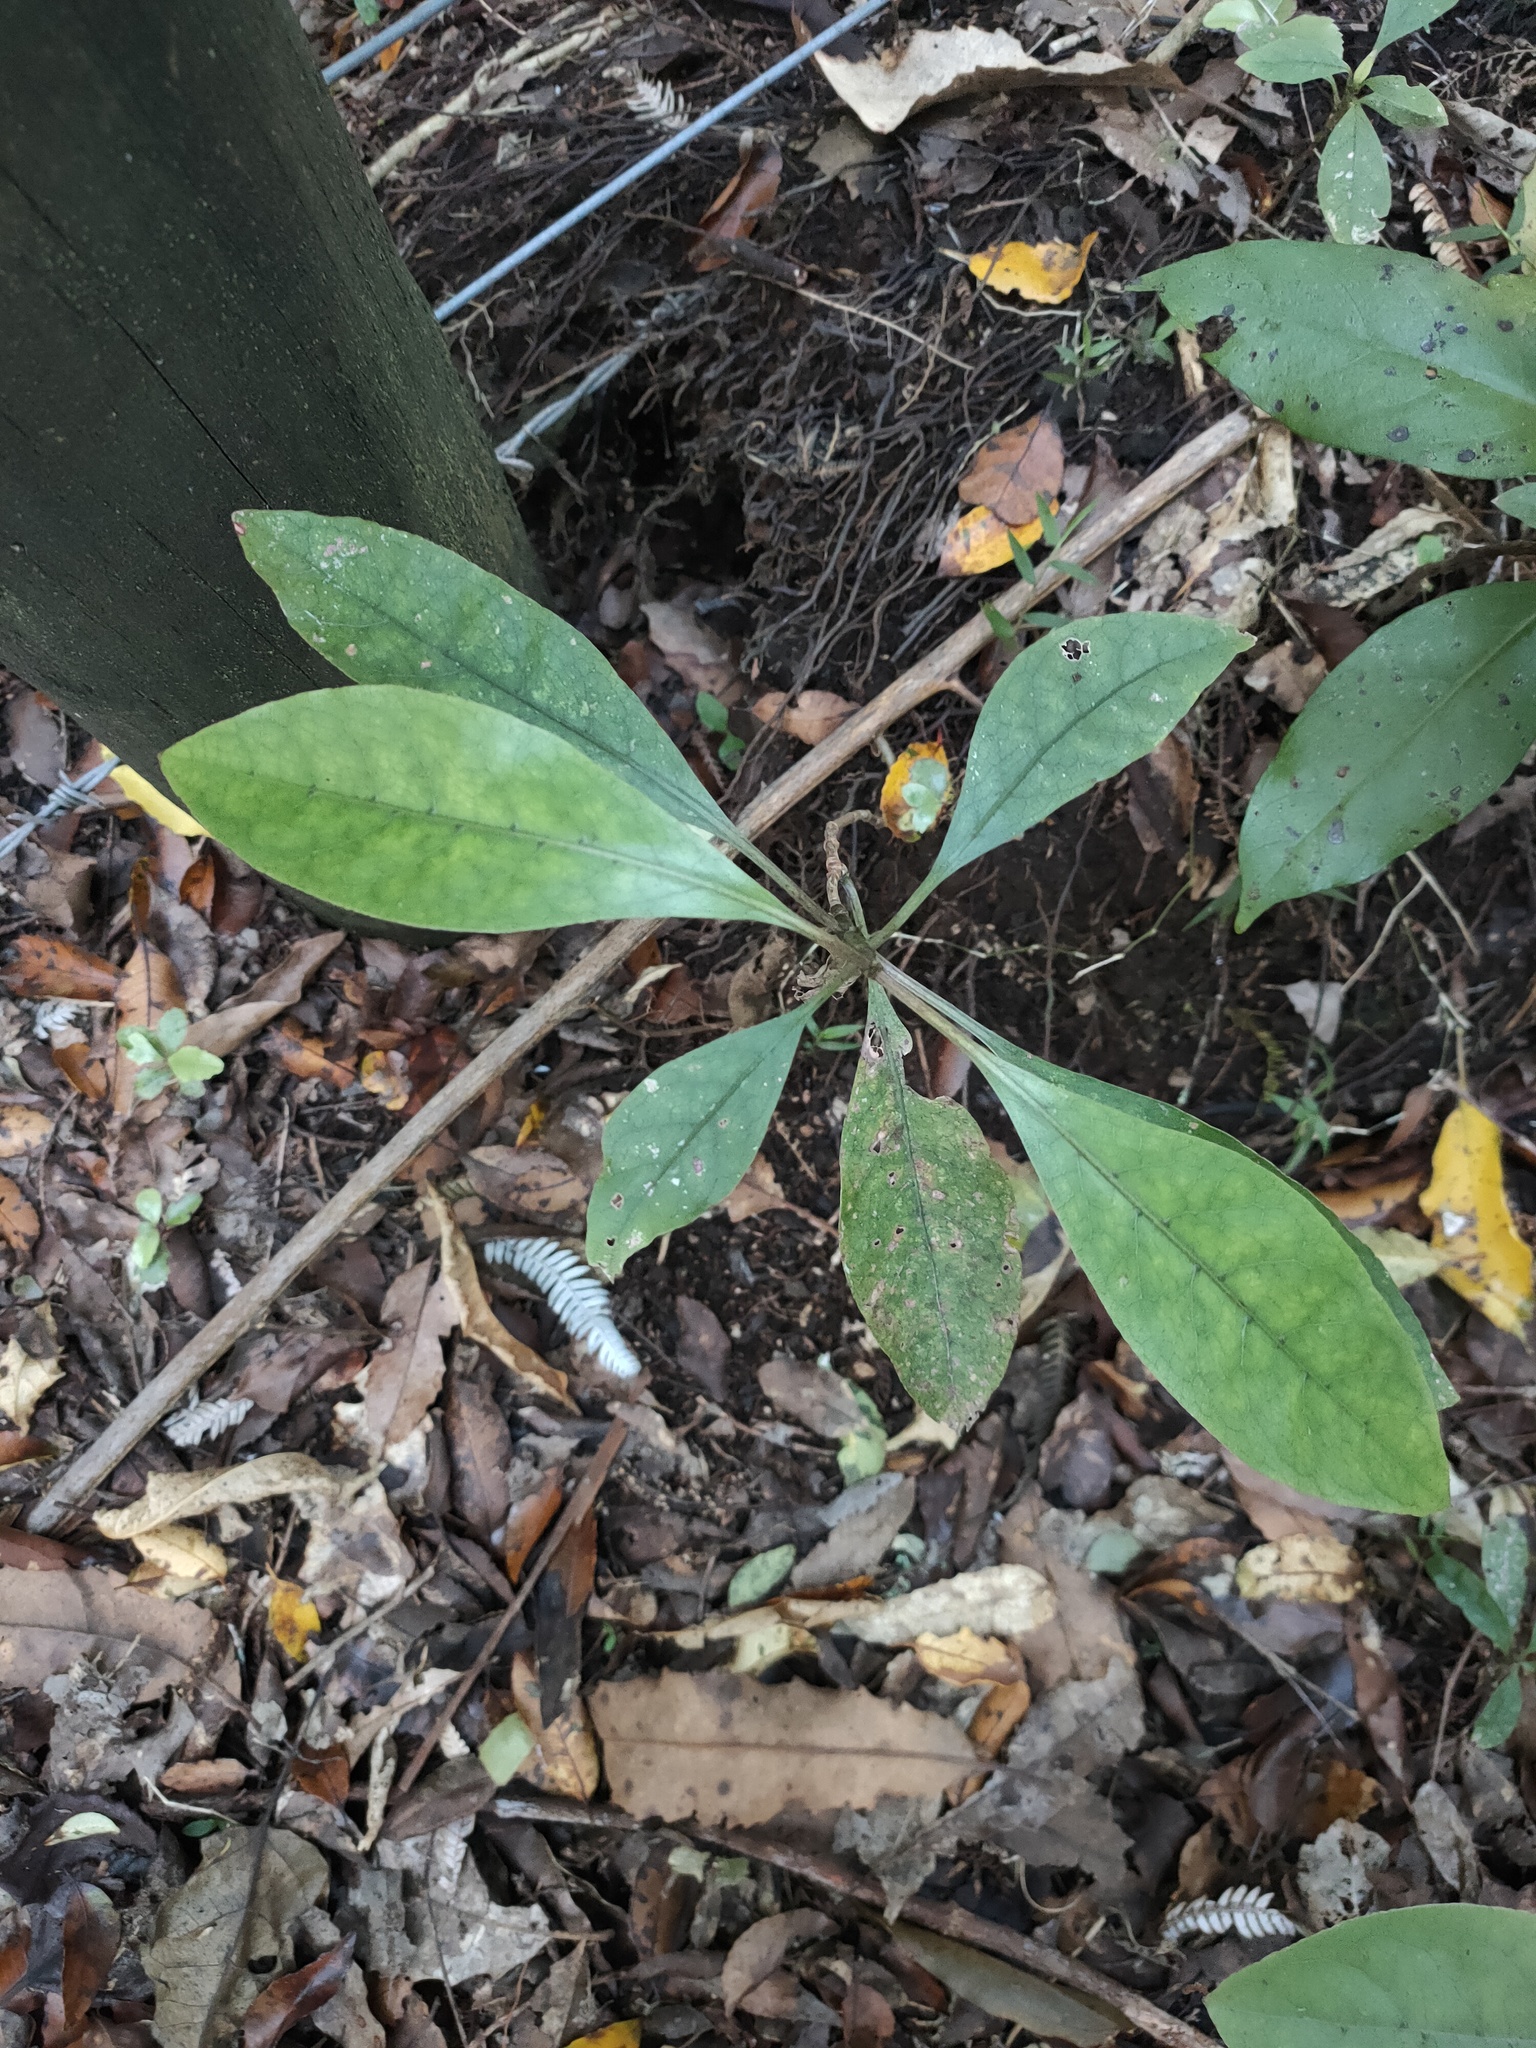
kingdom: Plantae
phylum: Tracheophyta
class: Magnoliopsida
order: Gentianales
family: Rubiaceae
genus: Coprosma
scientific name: Coprosma autumnalis
